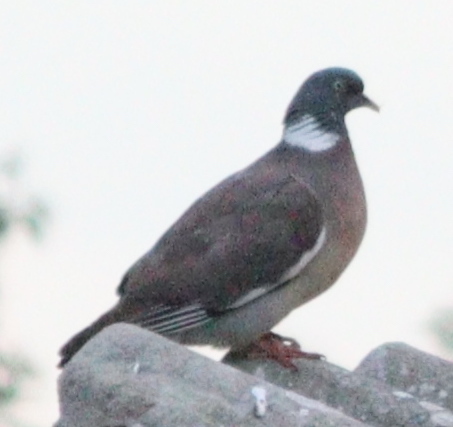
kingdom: Animalia
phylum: Chordata
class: Aves
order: Columbiformes
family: Columbidae
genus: Columba
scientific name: Columba palumbus
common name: Common wood pigeon
